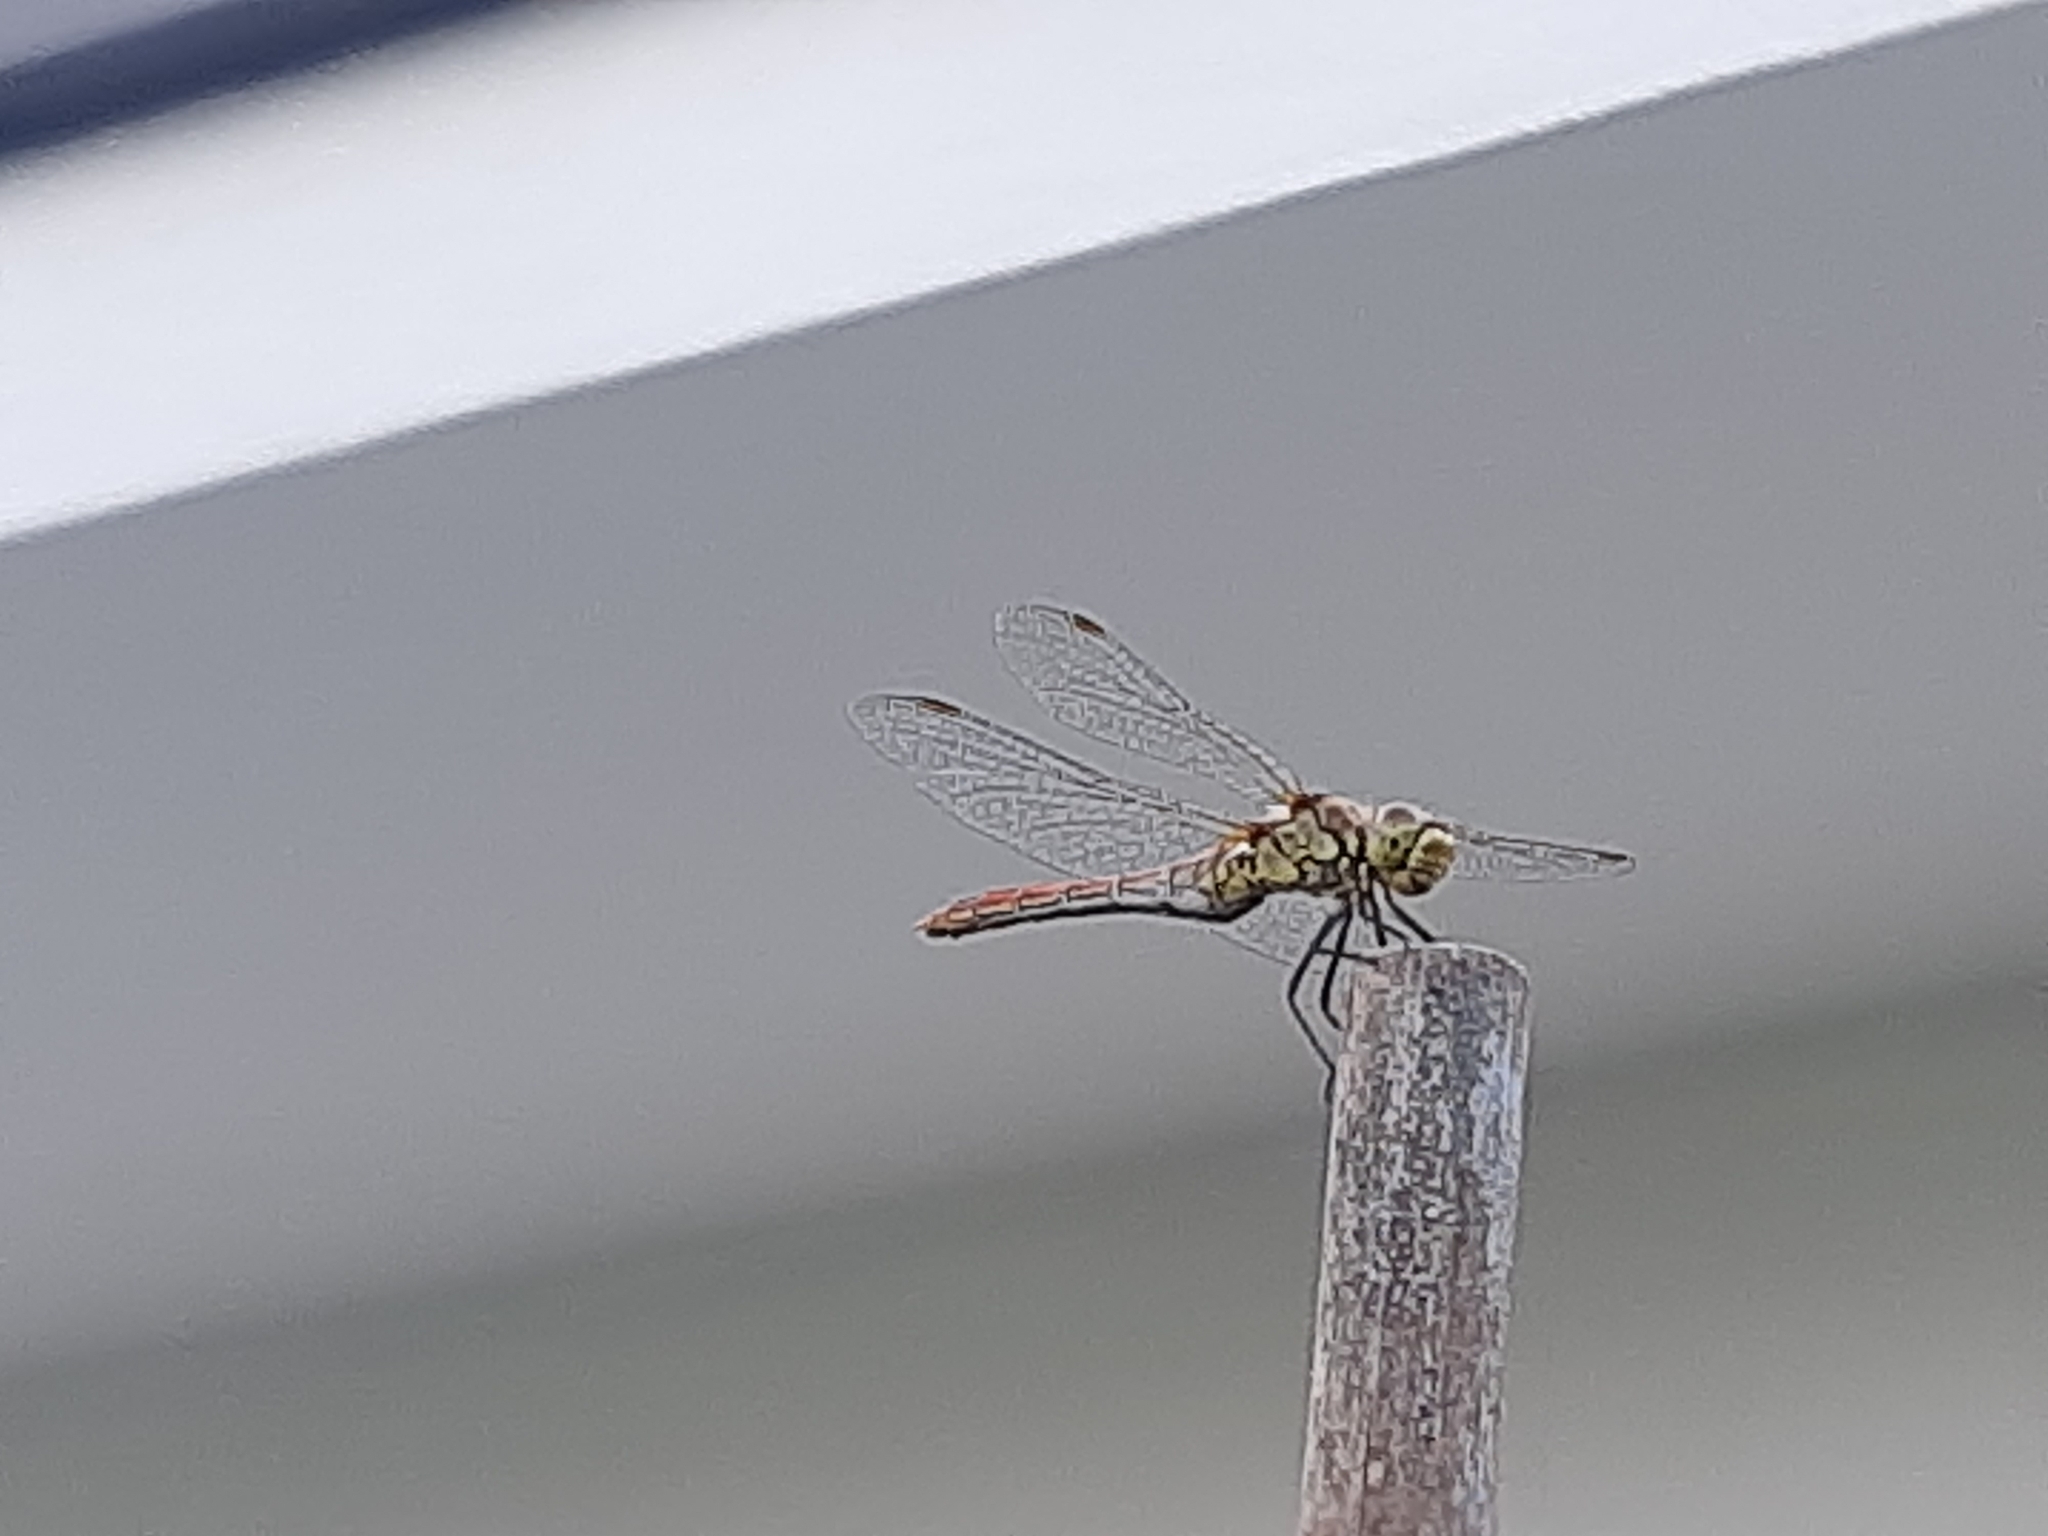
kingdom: Animalia
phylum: Arthropoda
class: Insecta
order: Odonata
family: Libellulidae
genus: Sympetrum
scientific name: Sympetrum sanguineum
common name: Ruddy darter
